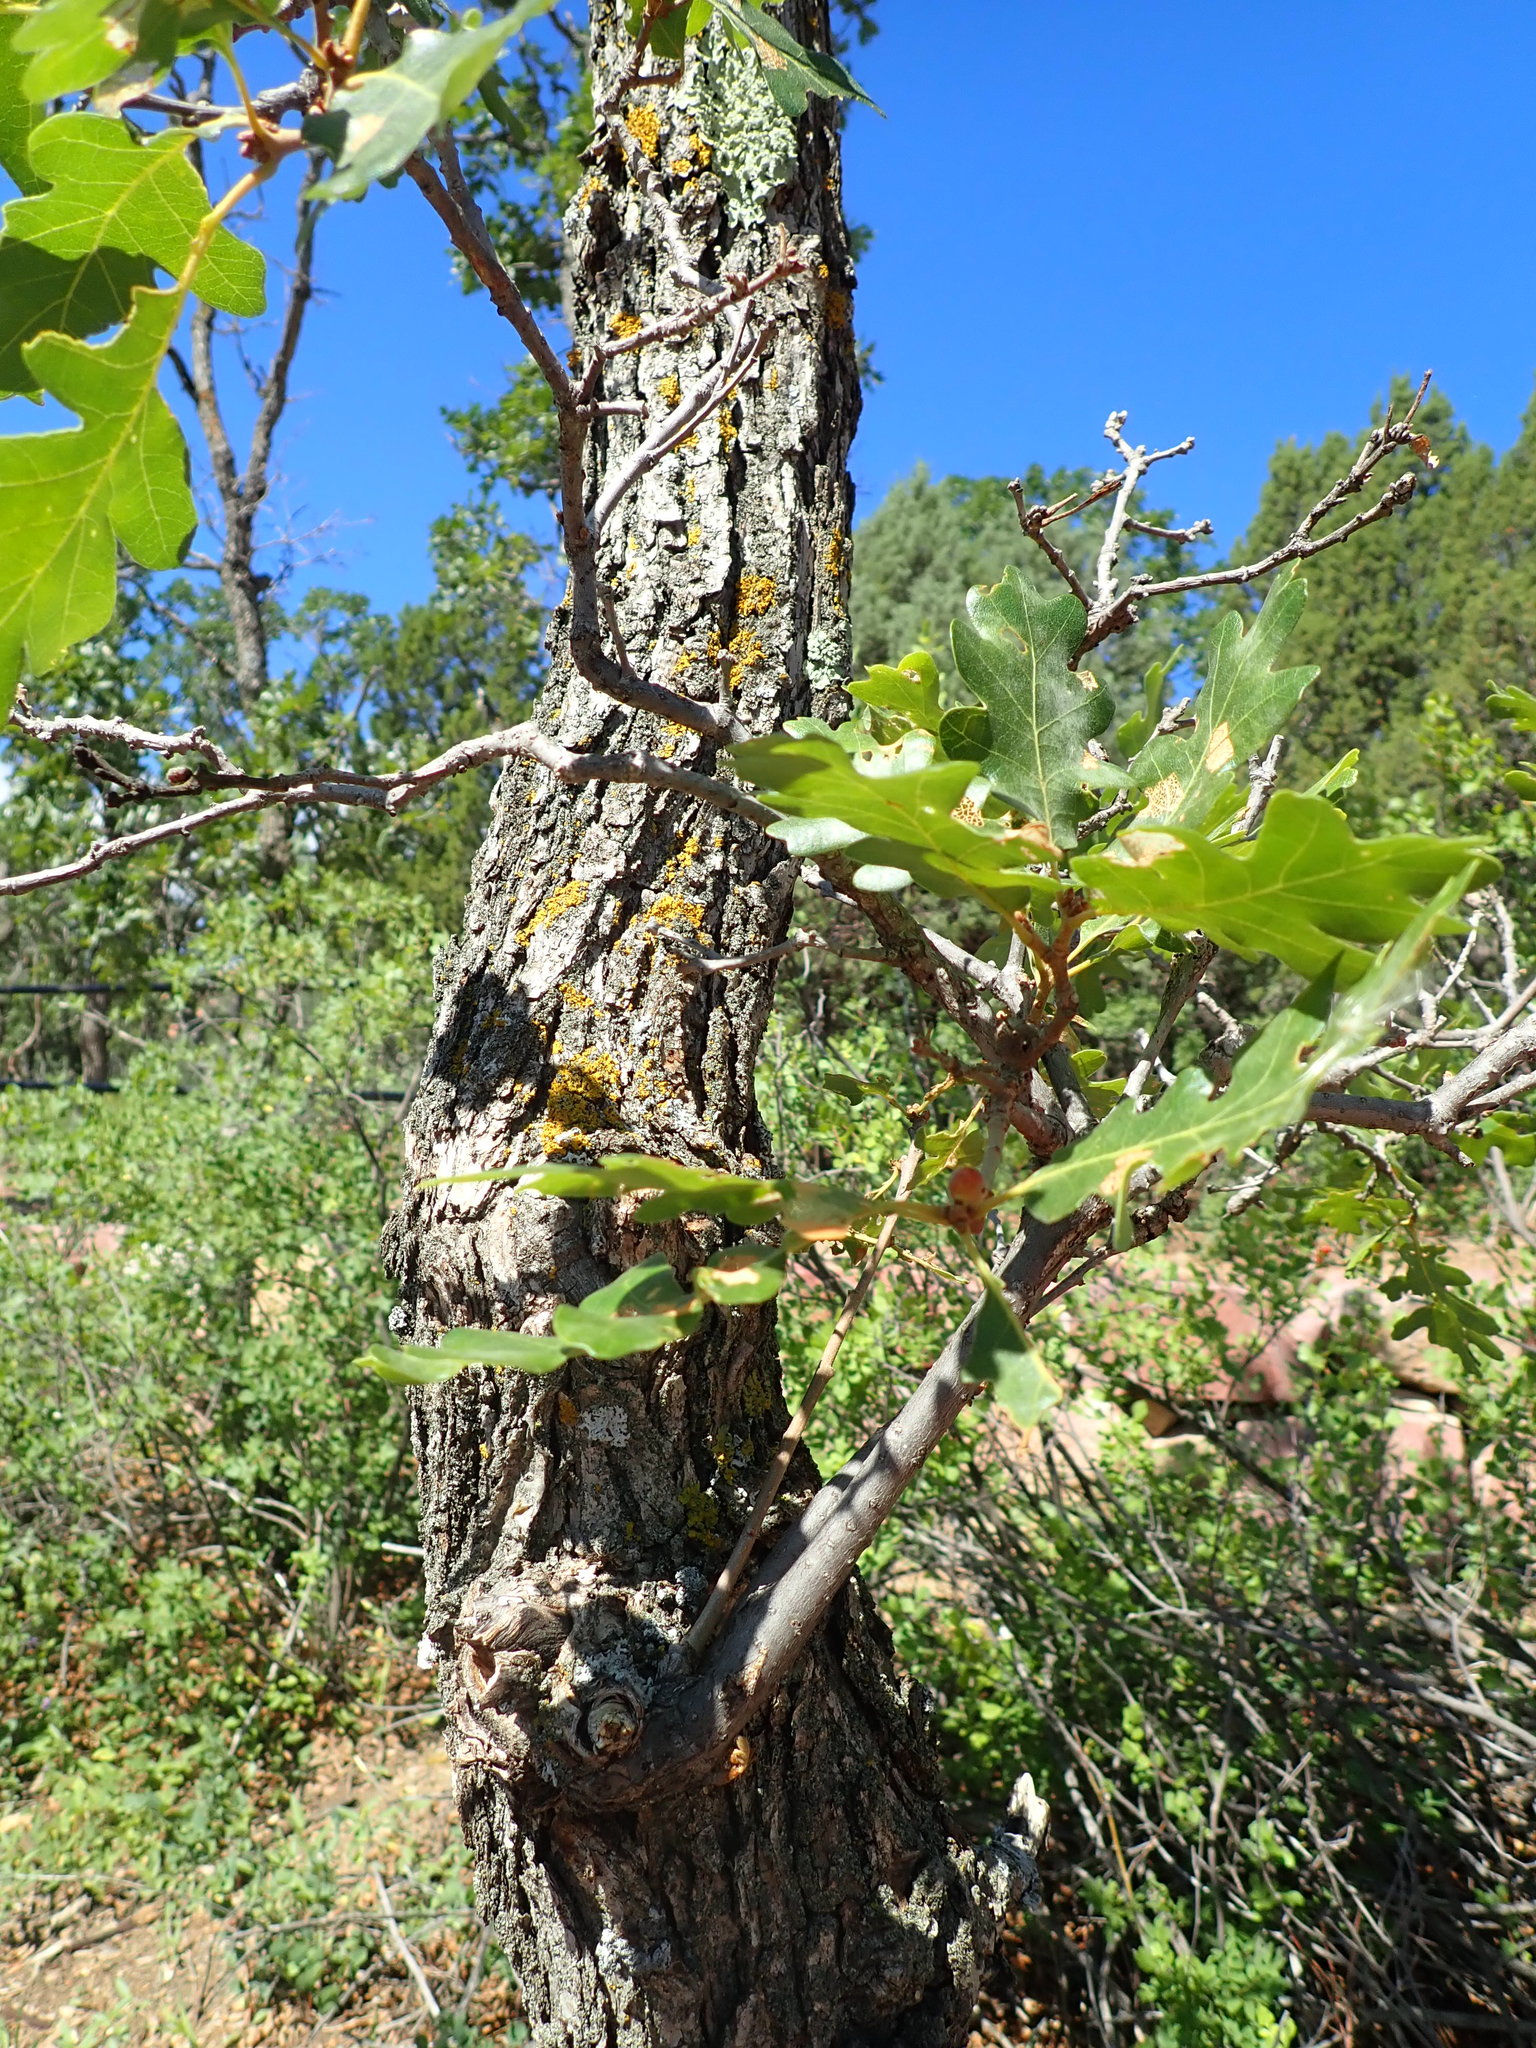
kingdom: Plantae
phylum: Tracheophyta
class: Magnoliopsida
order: Fagales
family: Fagaceae
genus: Quercus
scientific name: Quercus gambelii
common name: Gambel oak
